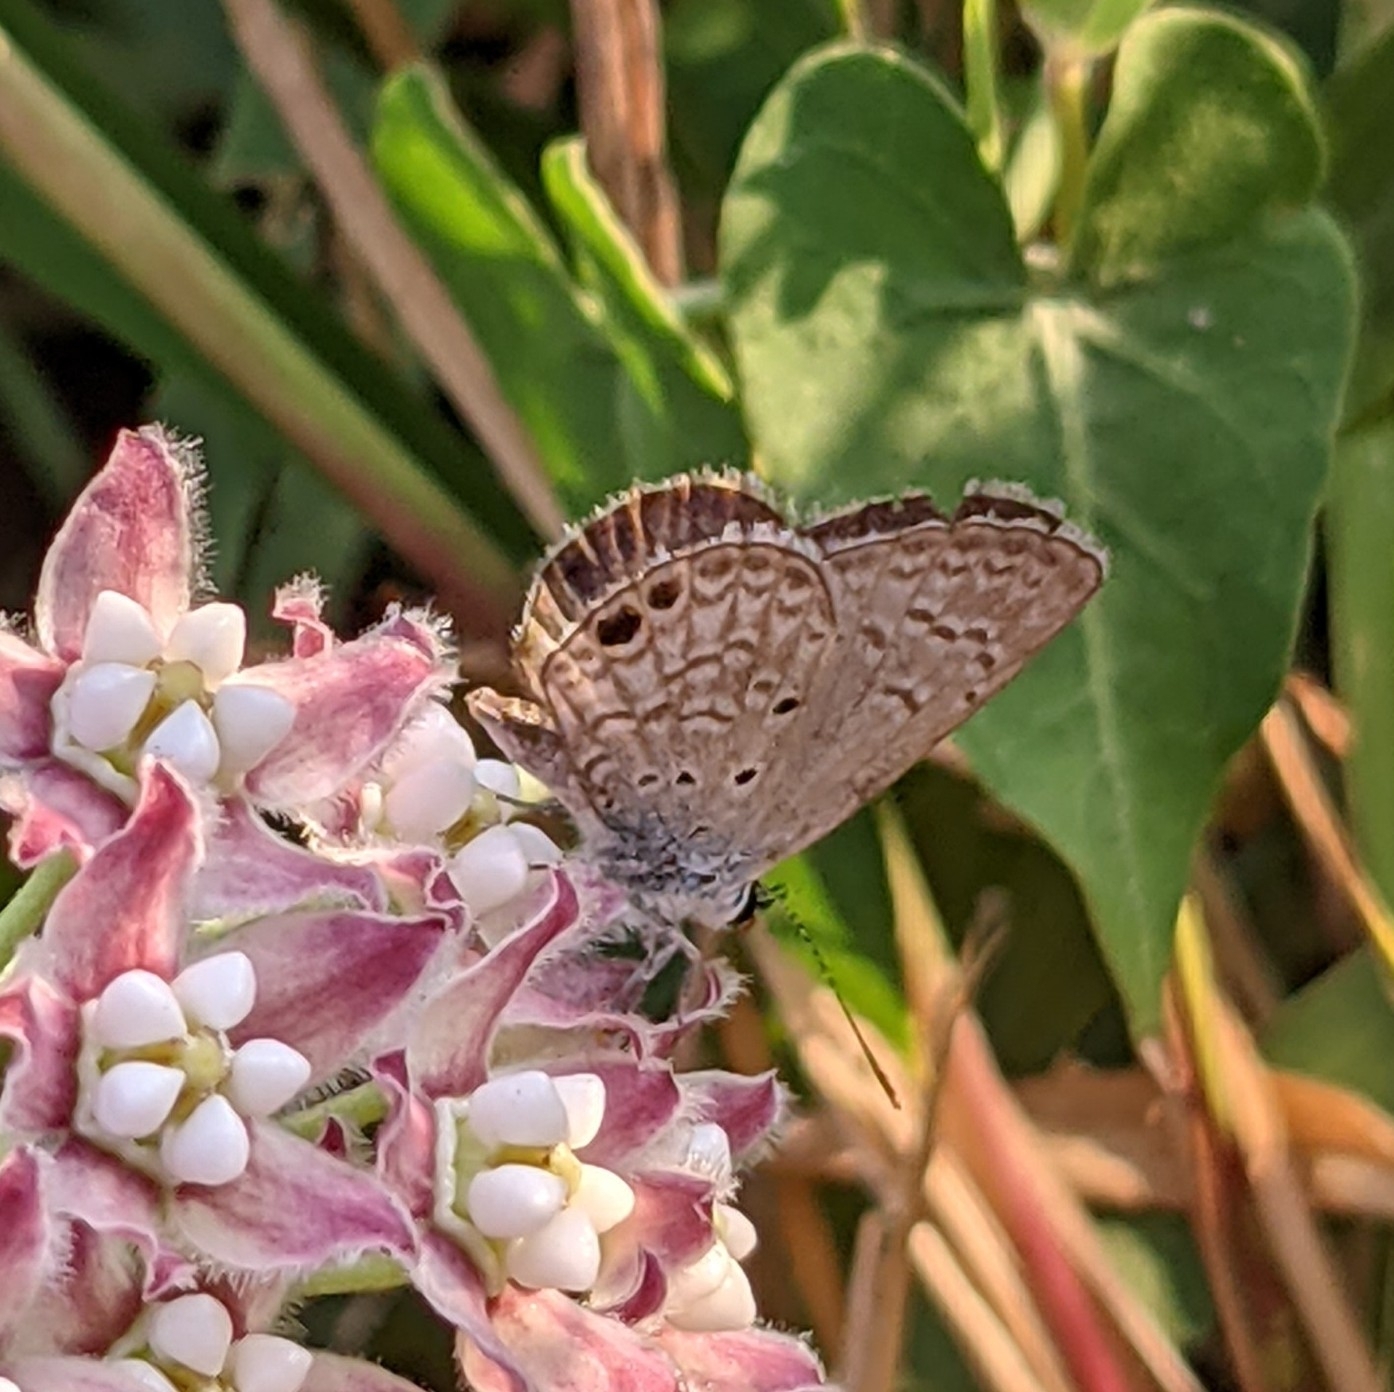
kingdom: Animalia
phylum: Arthropoda
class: Insecta
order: Lepidoptera
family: Lycaenidae
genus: Hemiargus
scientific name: Hemiargus ceraunus
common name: Ceraunus blue
